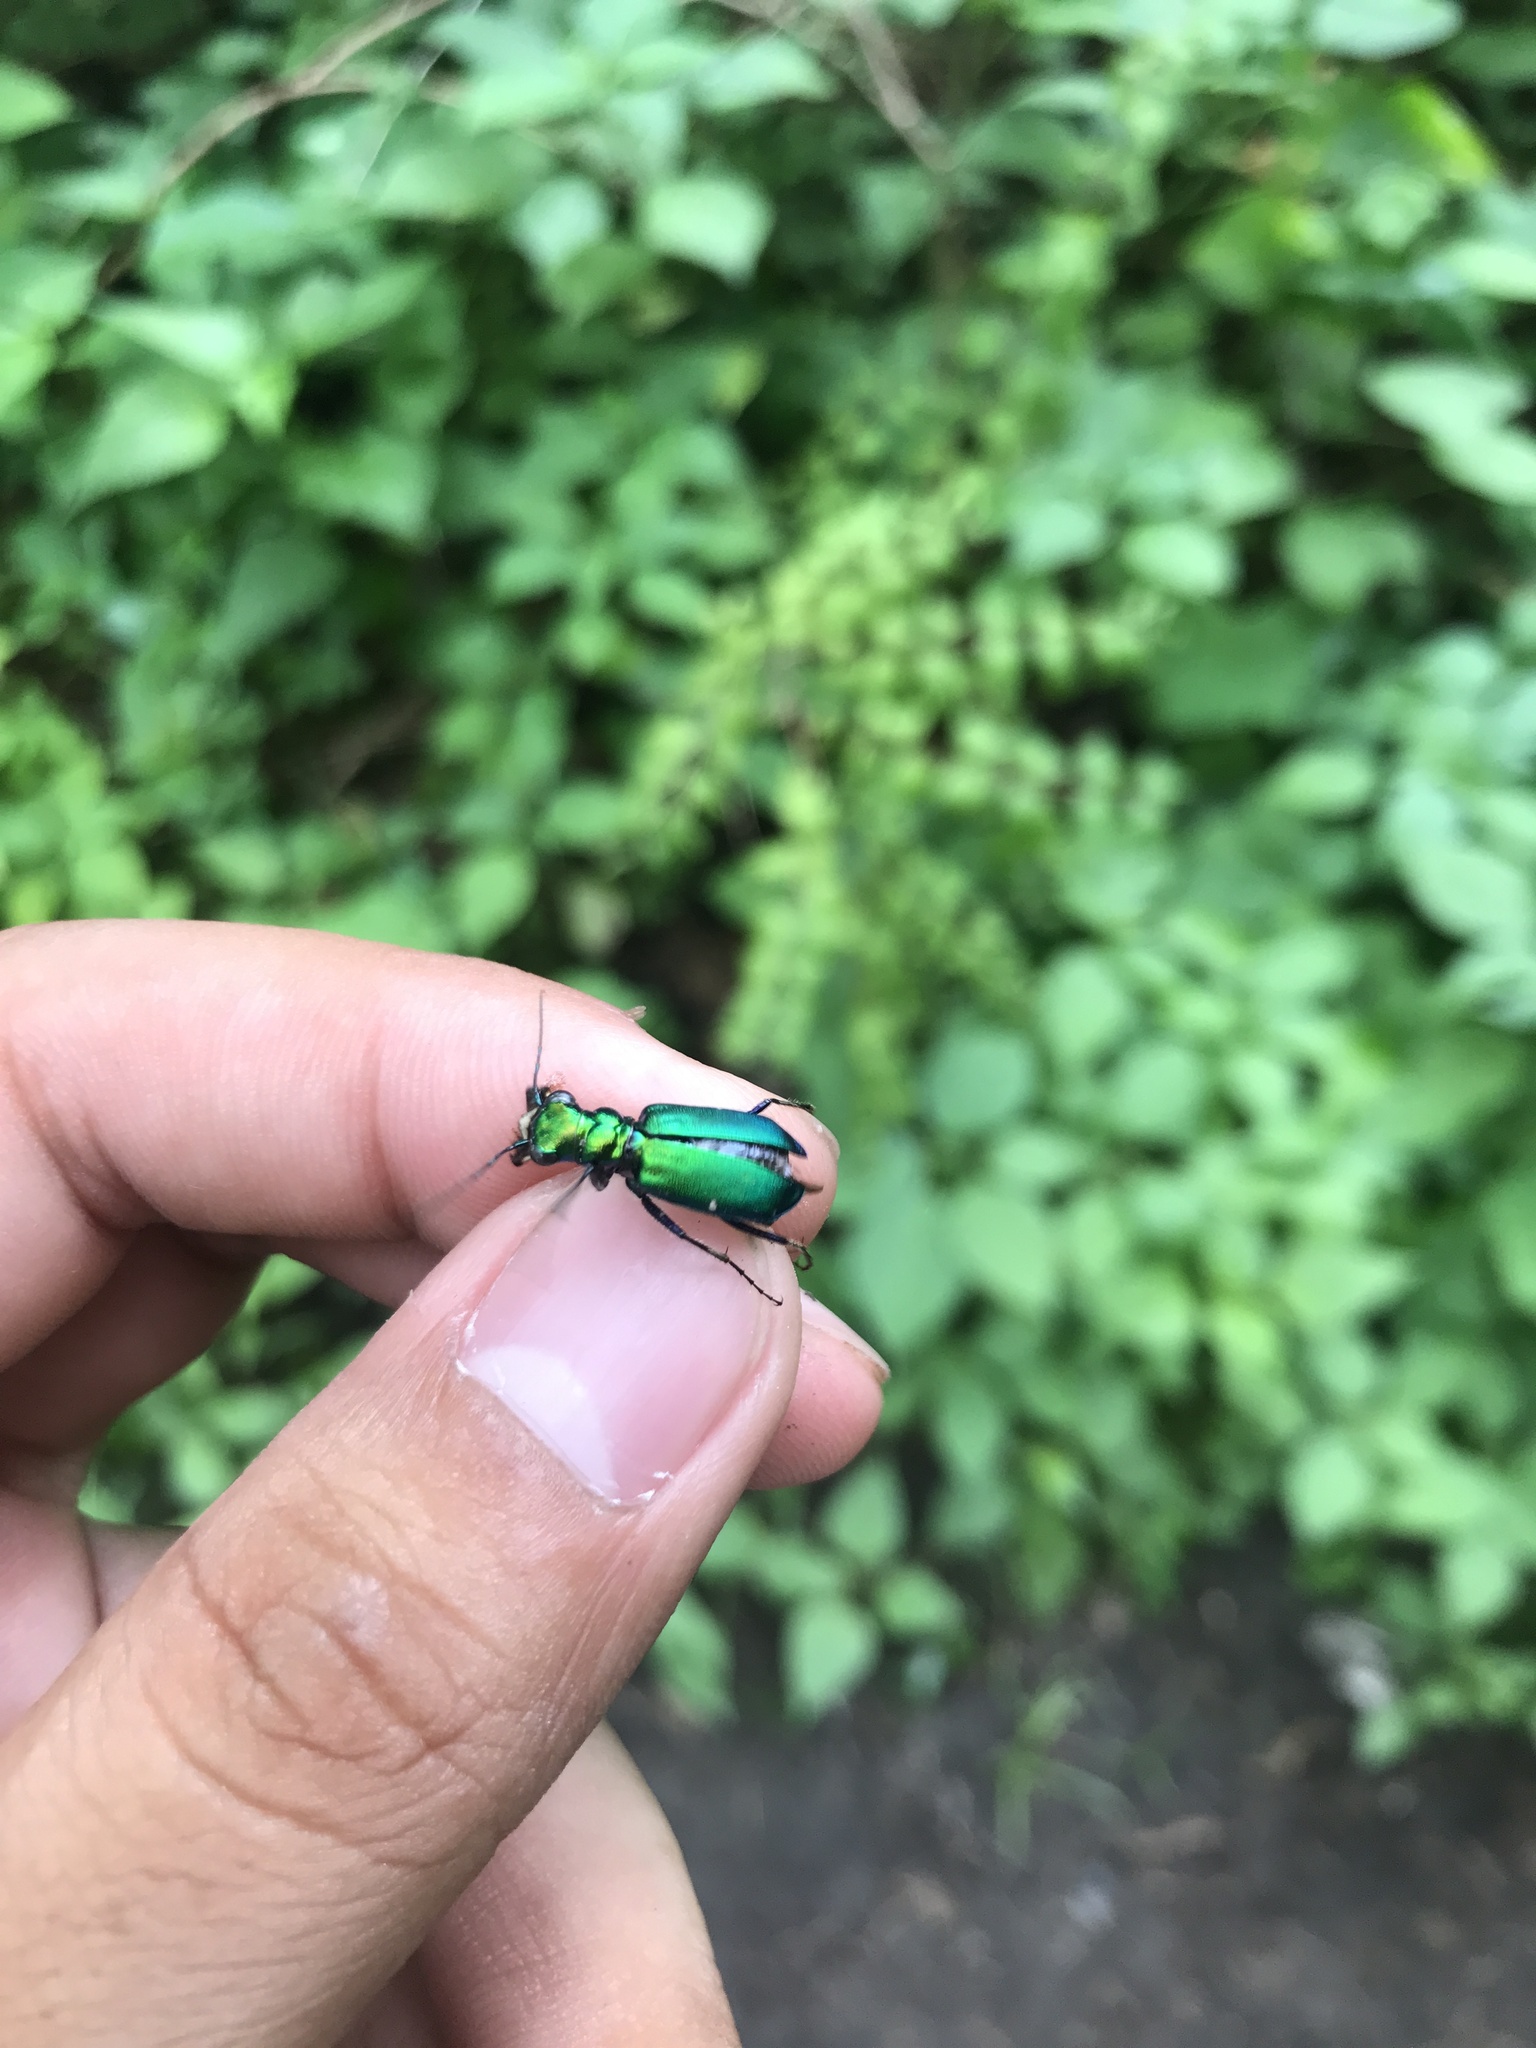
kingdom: Animalia
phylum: Arthropoda
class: Insecta
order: Coleoptera
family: Carabidae
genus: Cicindela
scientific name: Cicindela sexguttata
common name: Six-spotted tiger beetle
